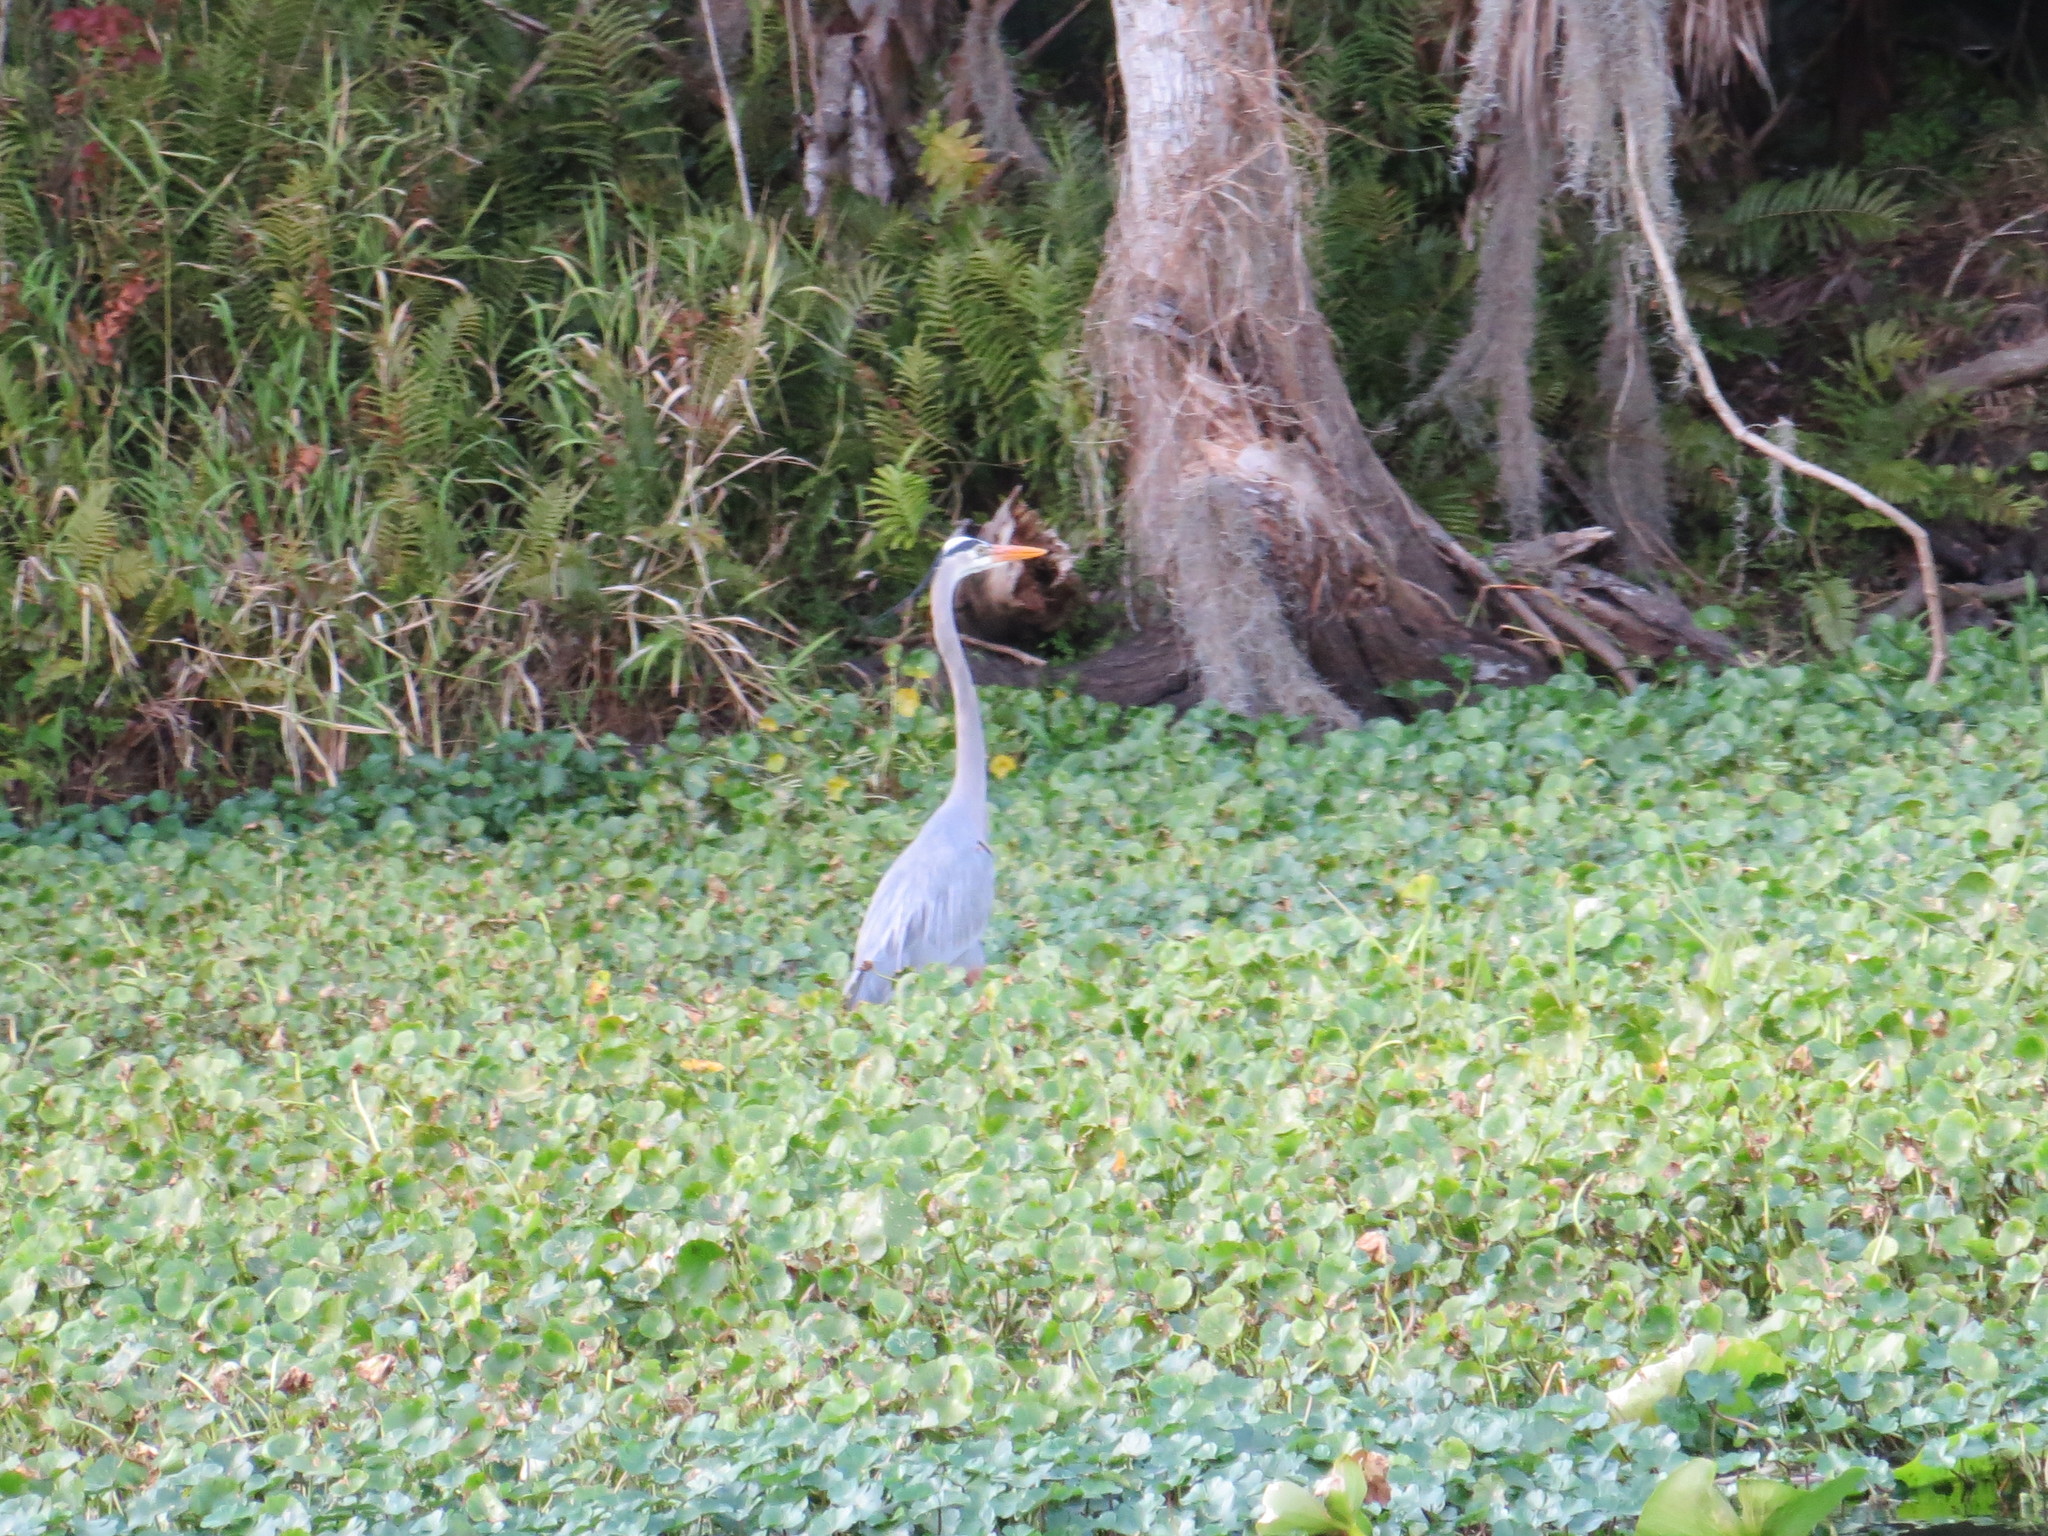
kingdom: Animalia
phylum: Chordata
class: Aves
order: Pelecaniformes
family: Ardeidae
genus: Ardea
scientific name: Ardea herodias
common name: Great blue heron
